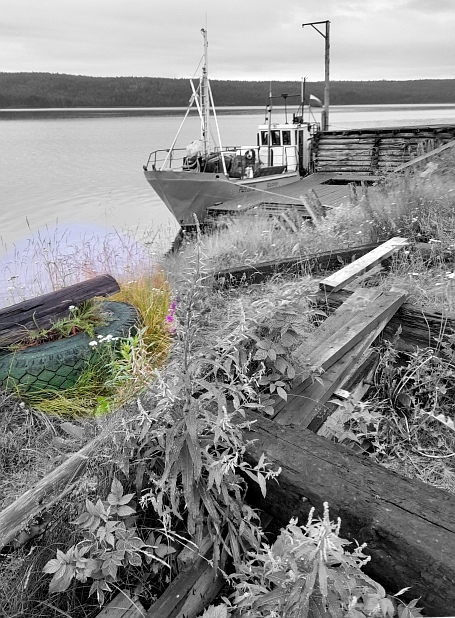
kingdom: Plantae
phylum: Tracheophyta
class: Magnoliopsida
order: Asterales
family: Asteraceae
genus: Achillea
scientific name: Achillea millefolium
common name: Yarrow
